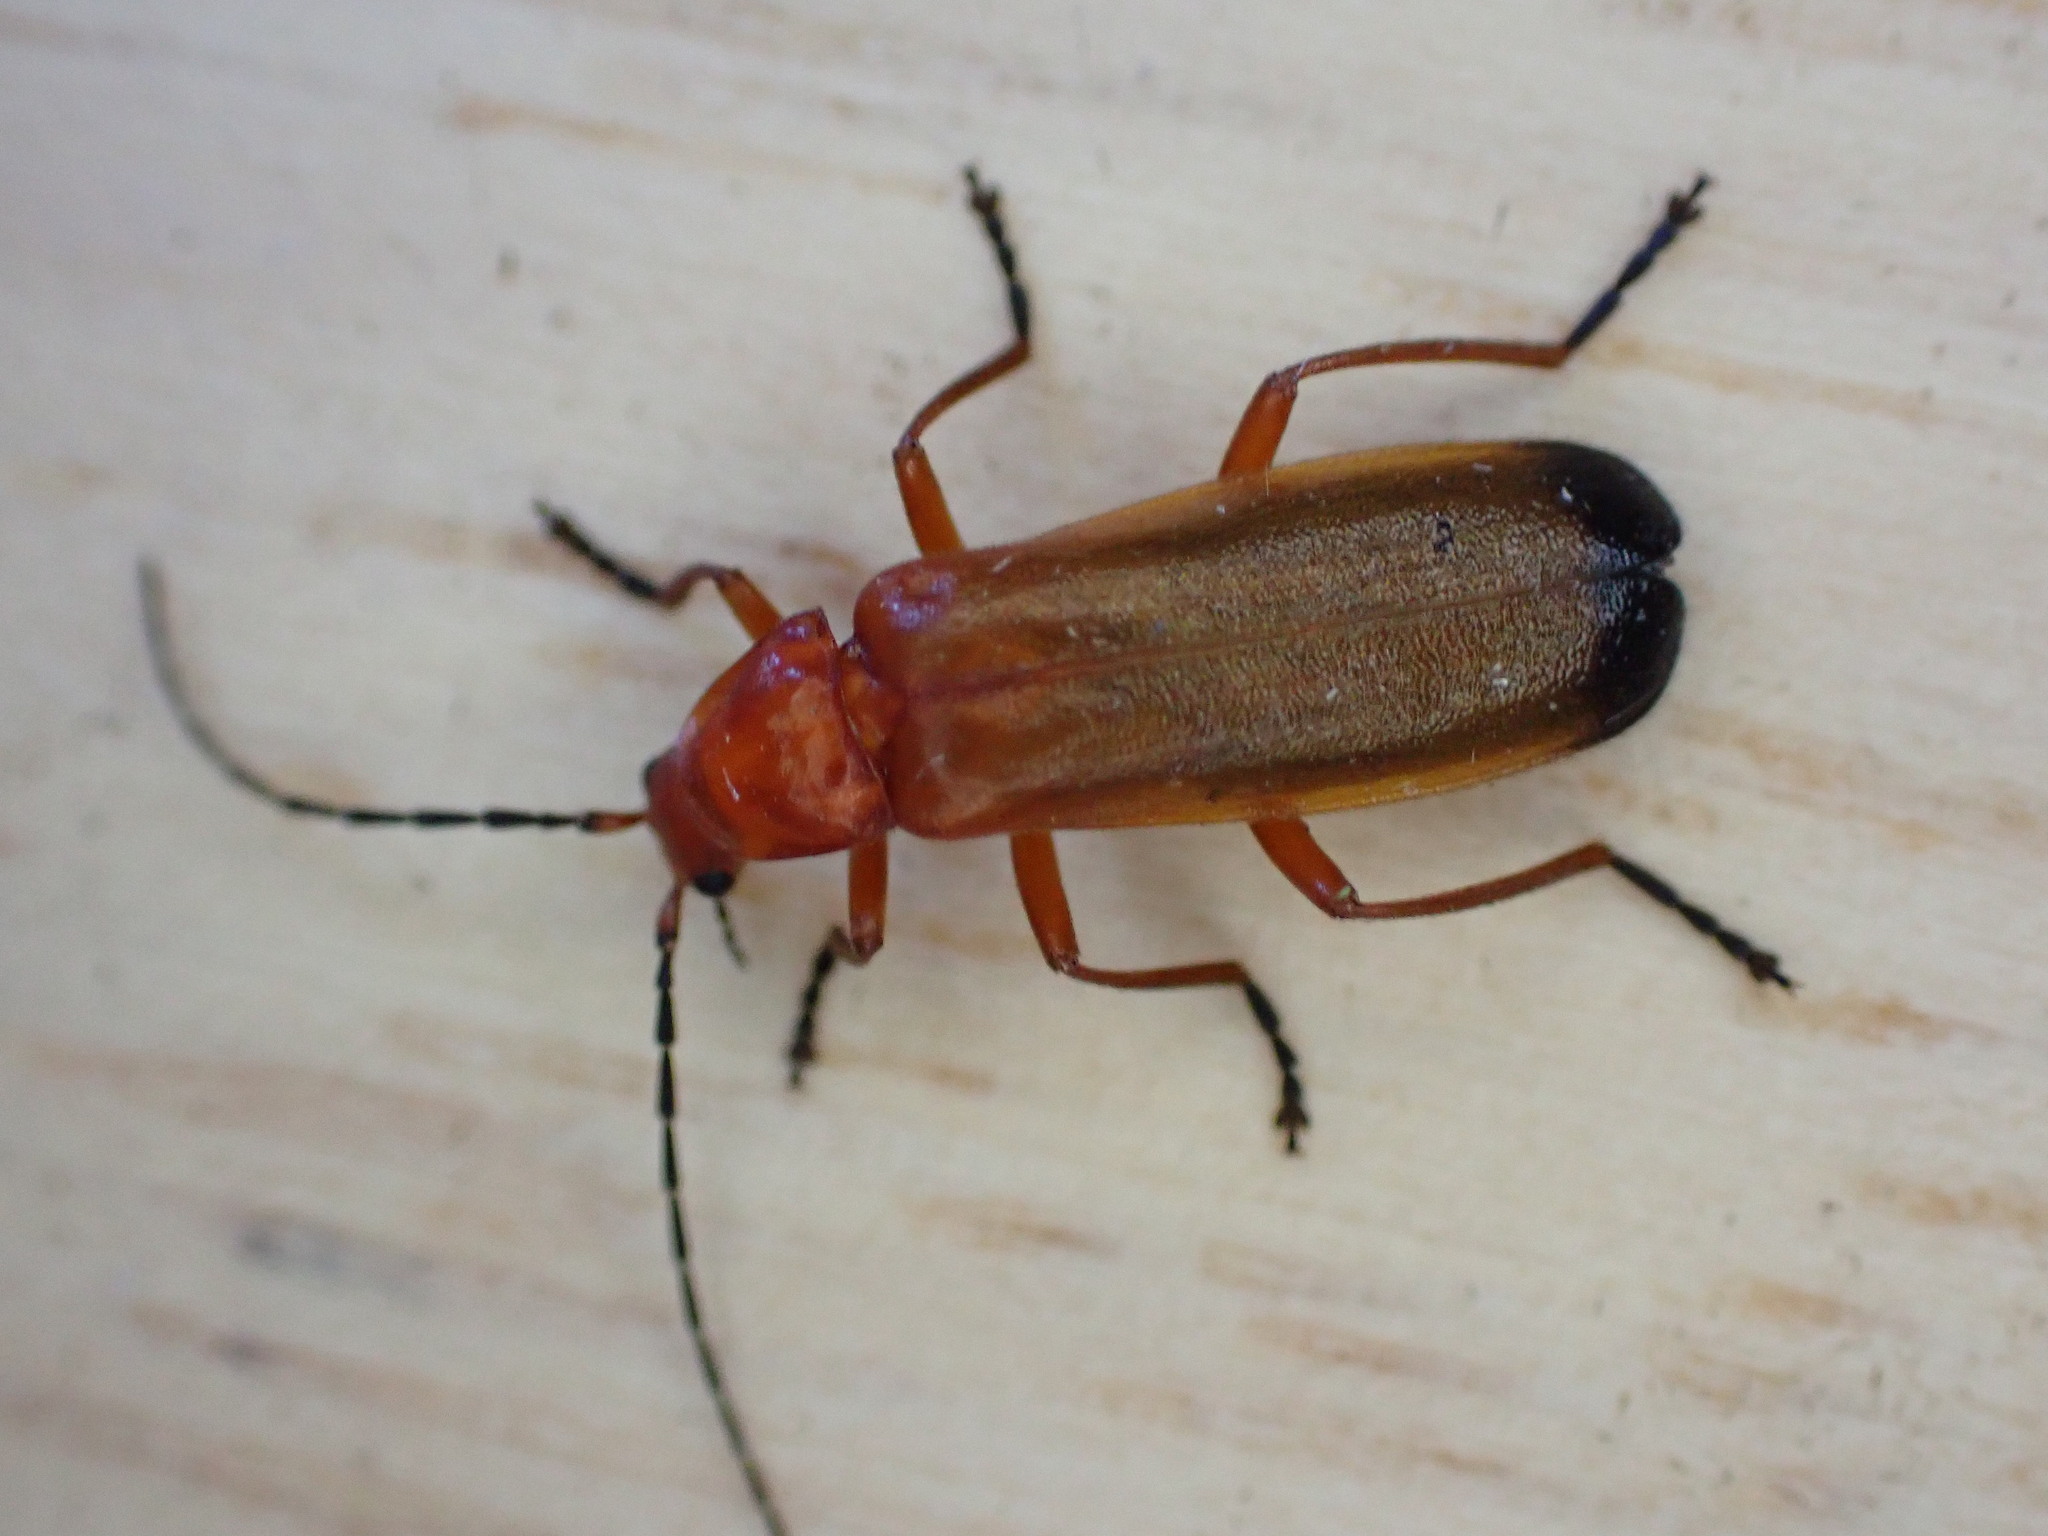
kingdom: Animalia
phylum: Arthropoda
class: Insecta
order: Coleoptera
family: Cantharidae
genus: Rhagonycha
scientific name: Rhagonycha fulva
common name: Common red soldier beetle
